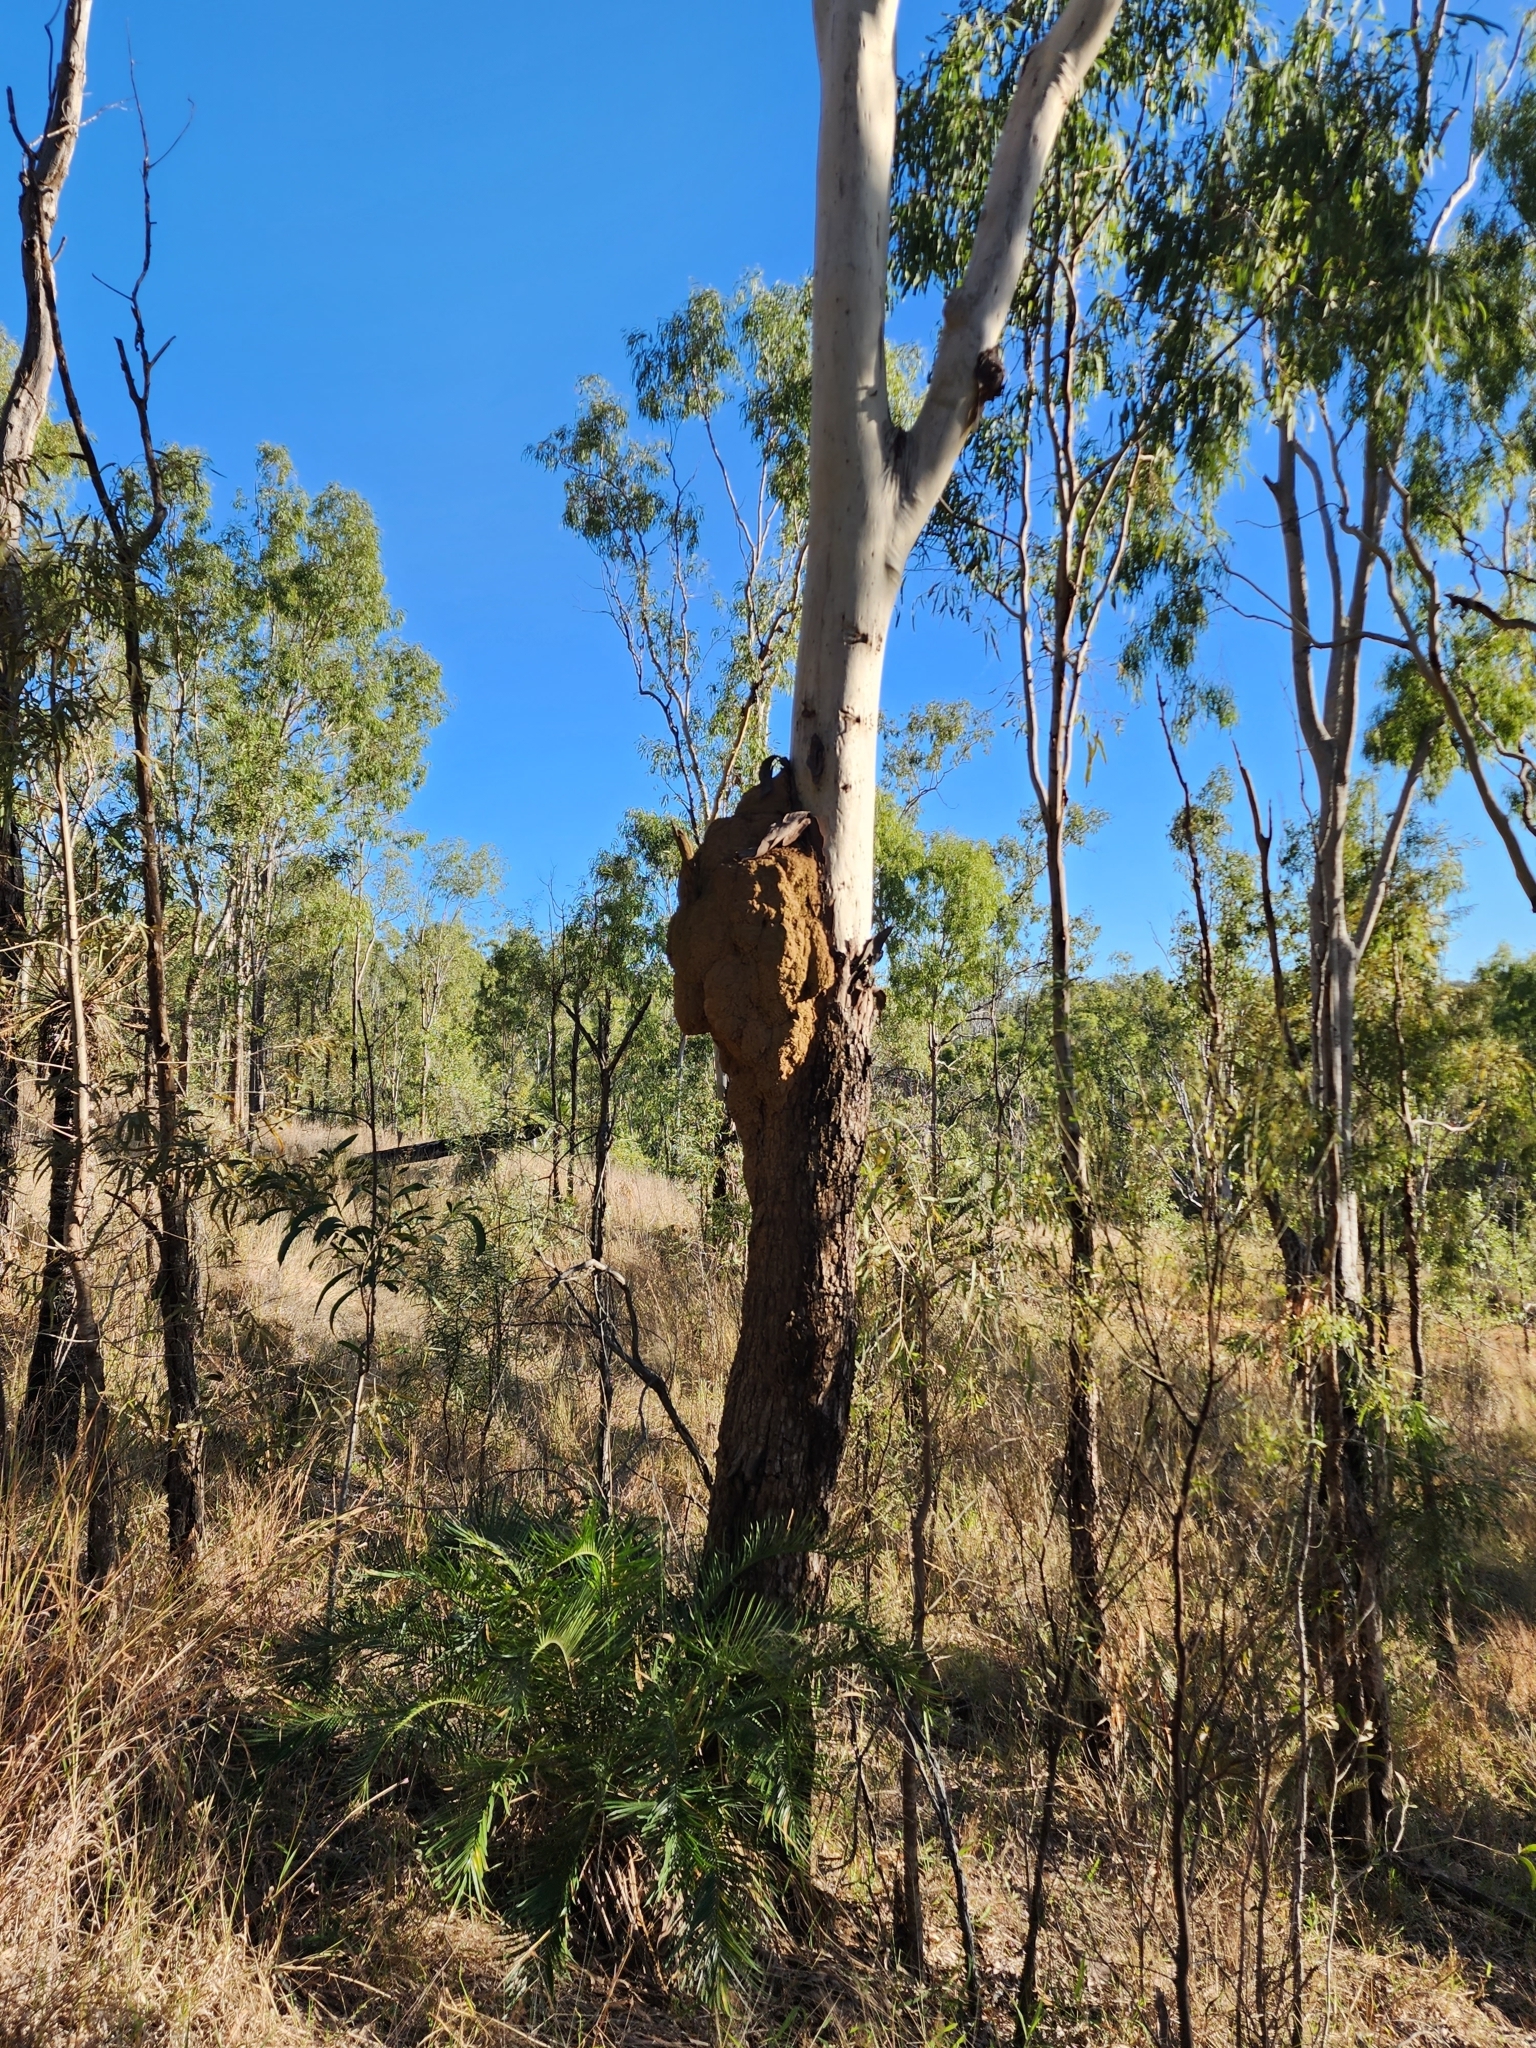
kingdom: Plantae
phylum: Tracheophyta
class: Magnoliopsida
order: Myrtales
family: Myrtaceae
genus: Corymbia
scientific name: Corymbia tessellaris
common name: Carbeen
